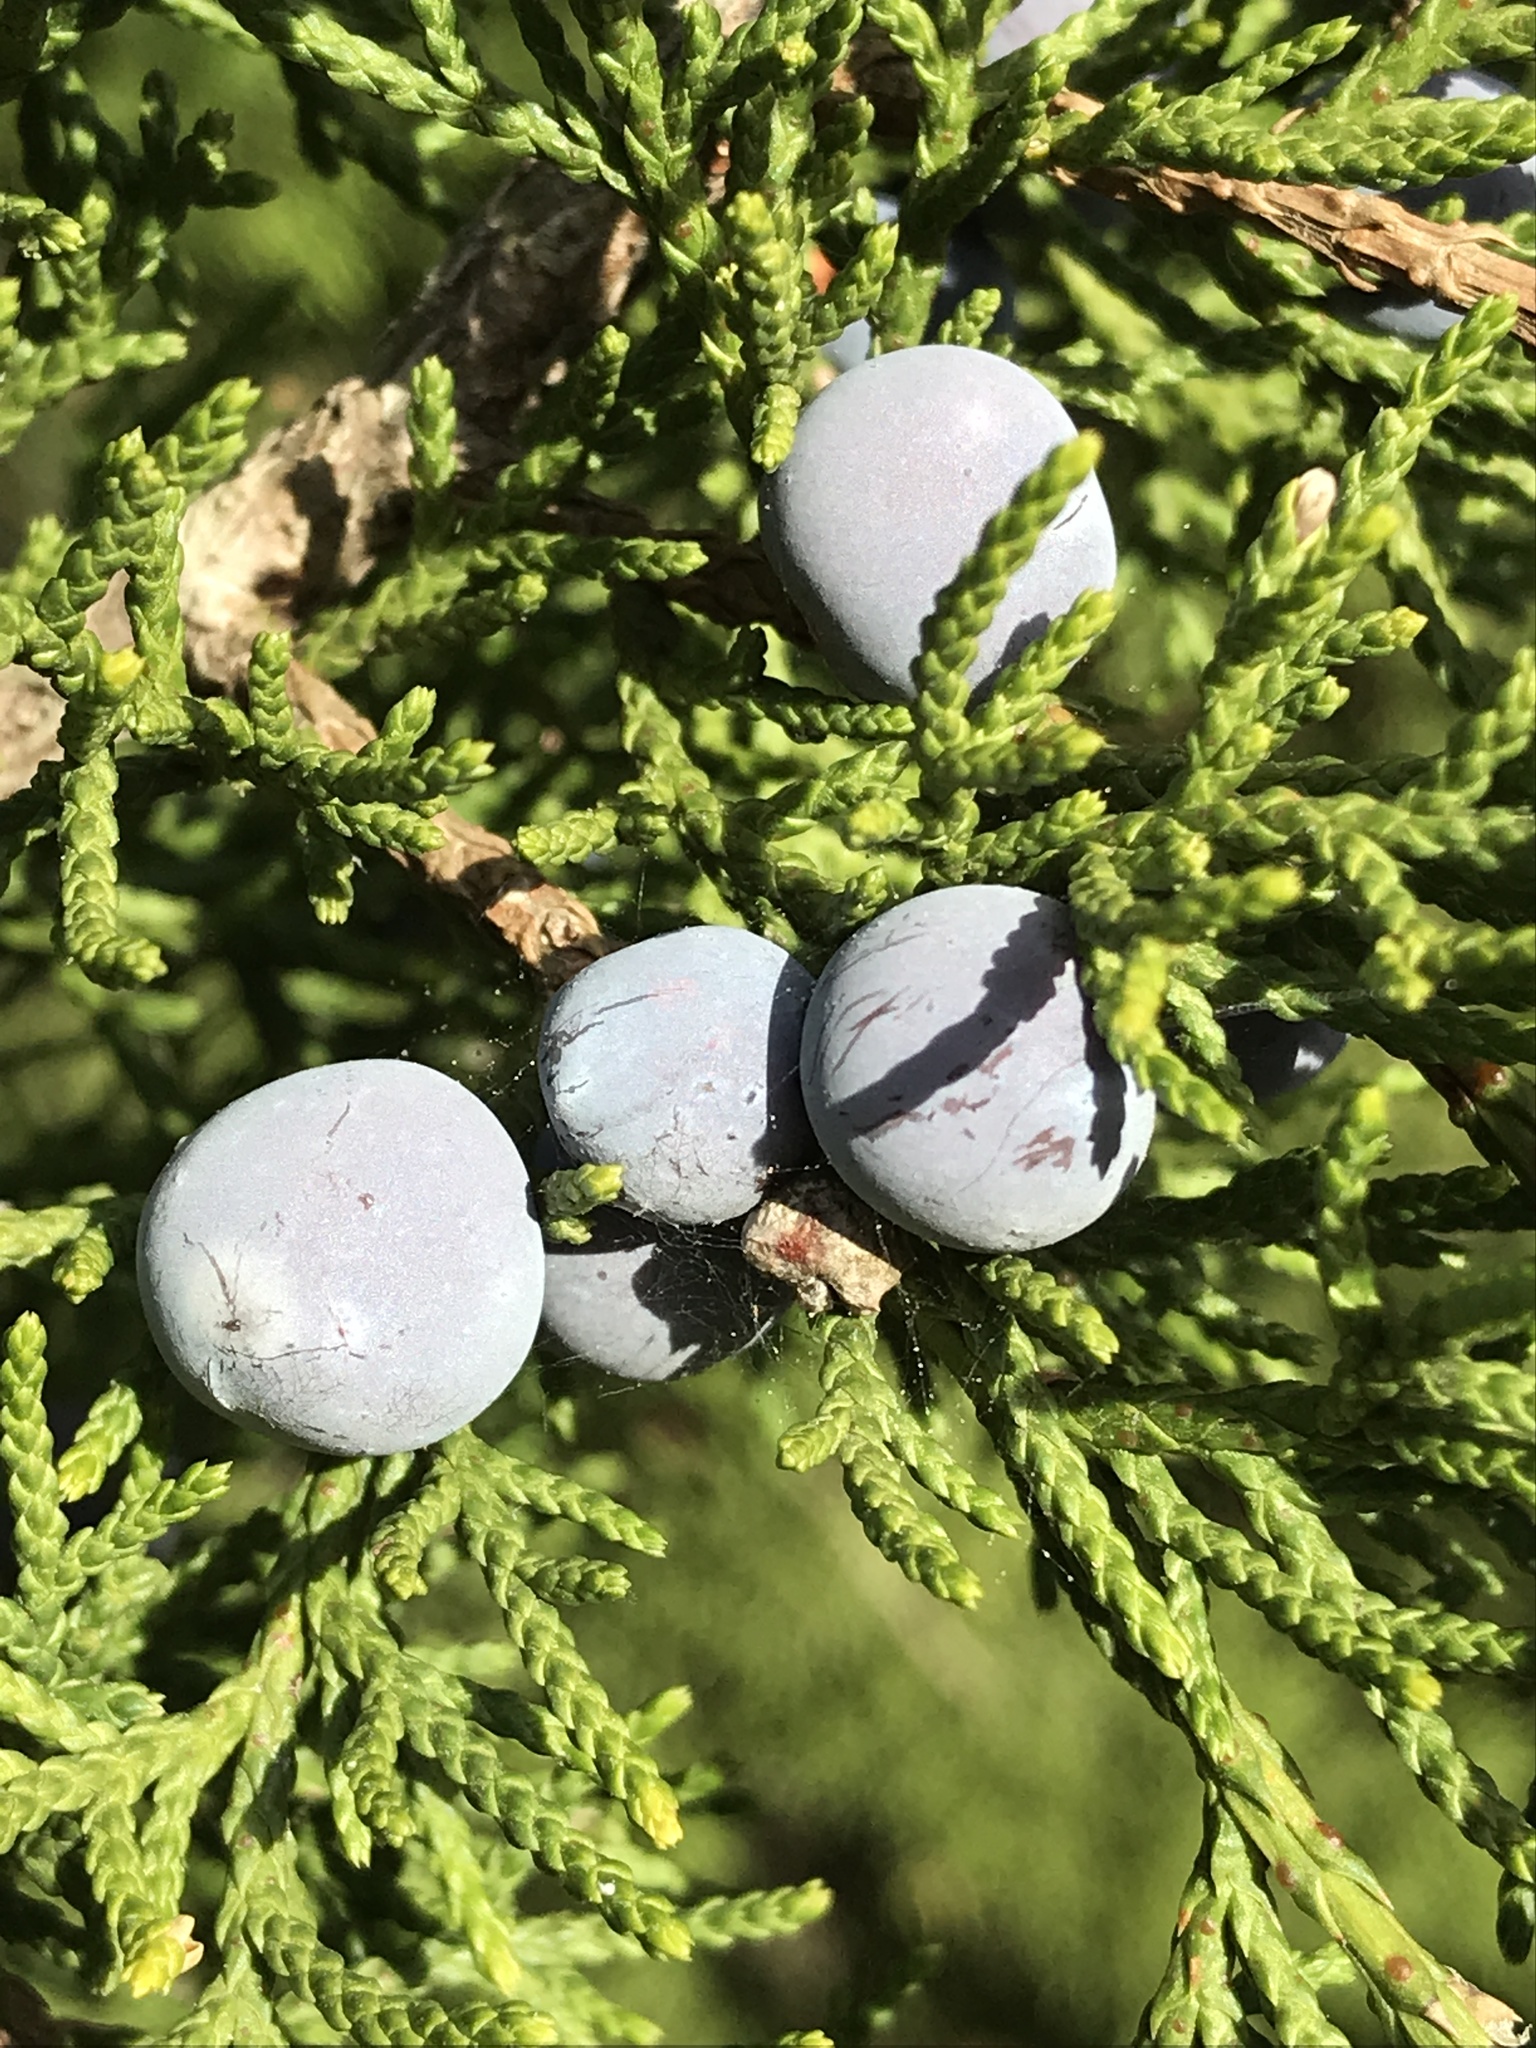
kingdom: Plantae
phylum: Tracheophyta
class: Pinopsida
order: Pinales
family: Cupressaceae
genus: Juniperus
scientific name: Juniperus ashei
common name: Mexican juniper
